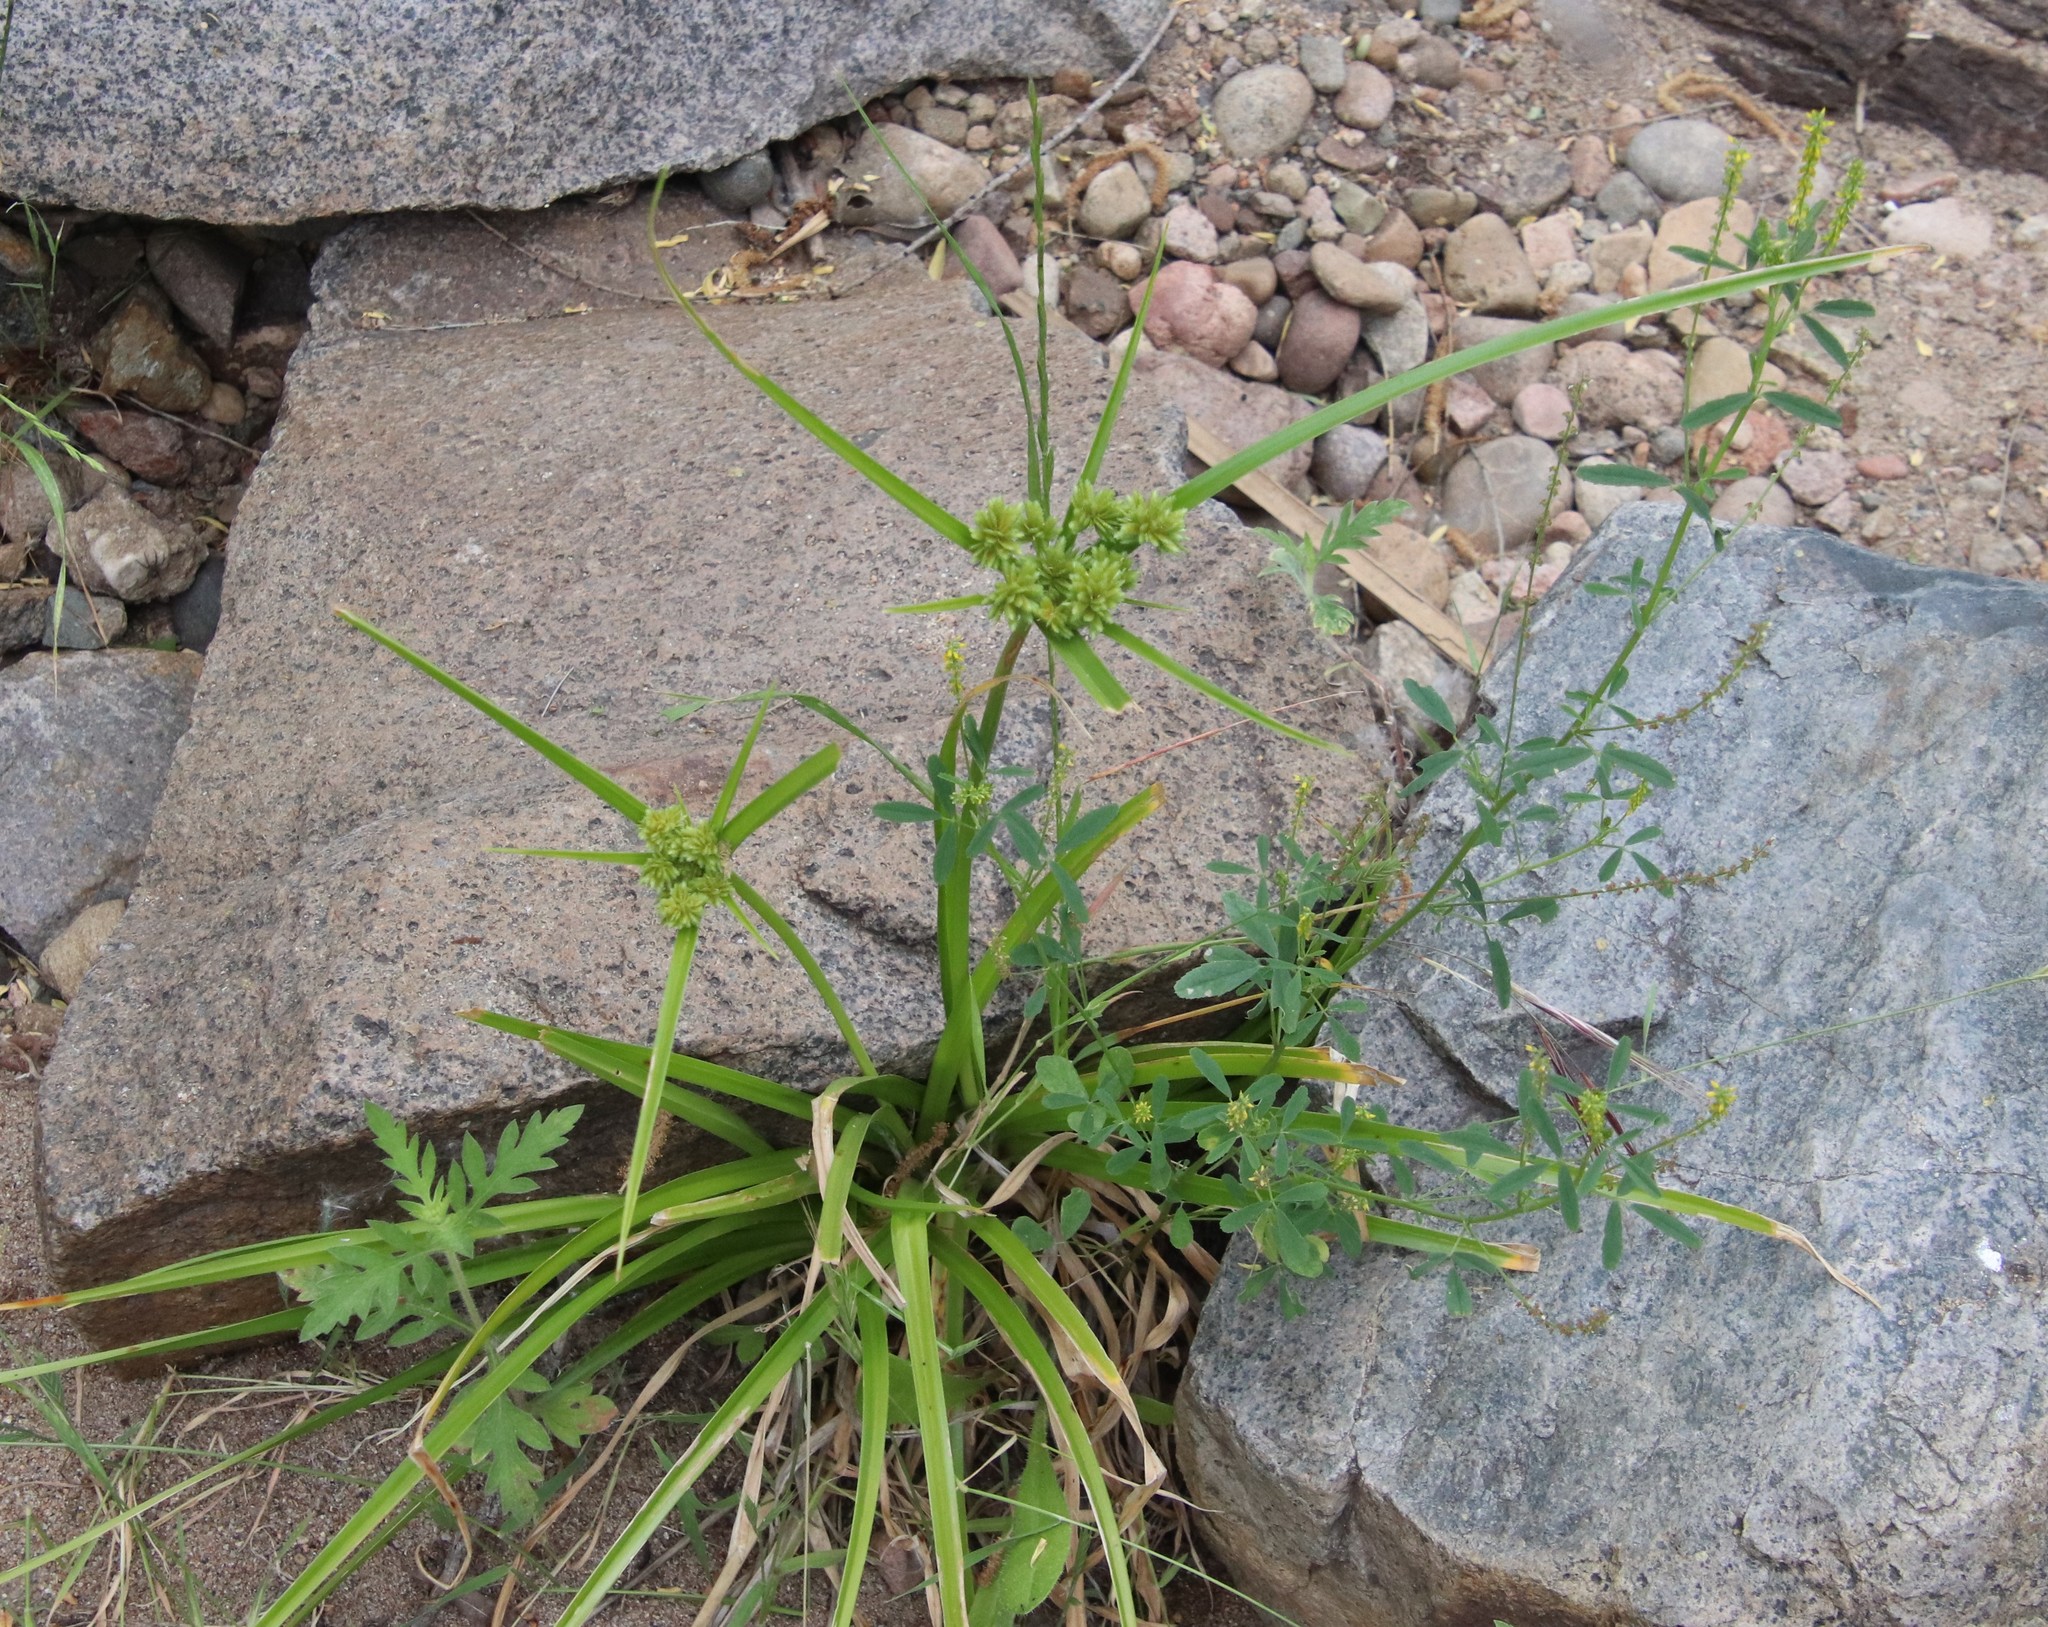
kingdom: Plantae
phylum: Tracheophyta
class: Liliopsida
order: Poales
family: Cyperaceae
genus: Cyperus
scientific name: Cyperus eragrostis
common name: Tall flatsedge
